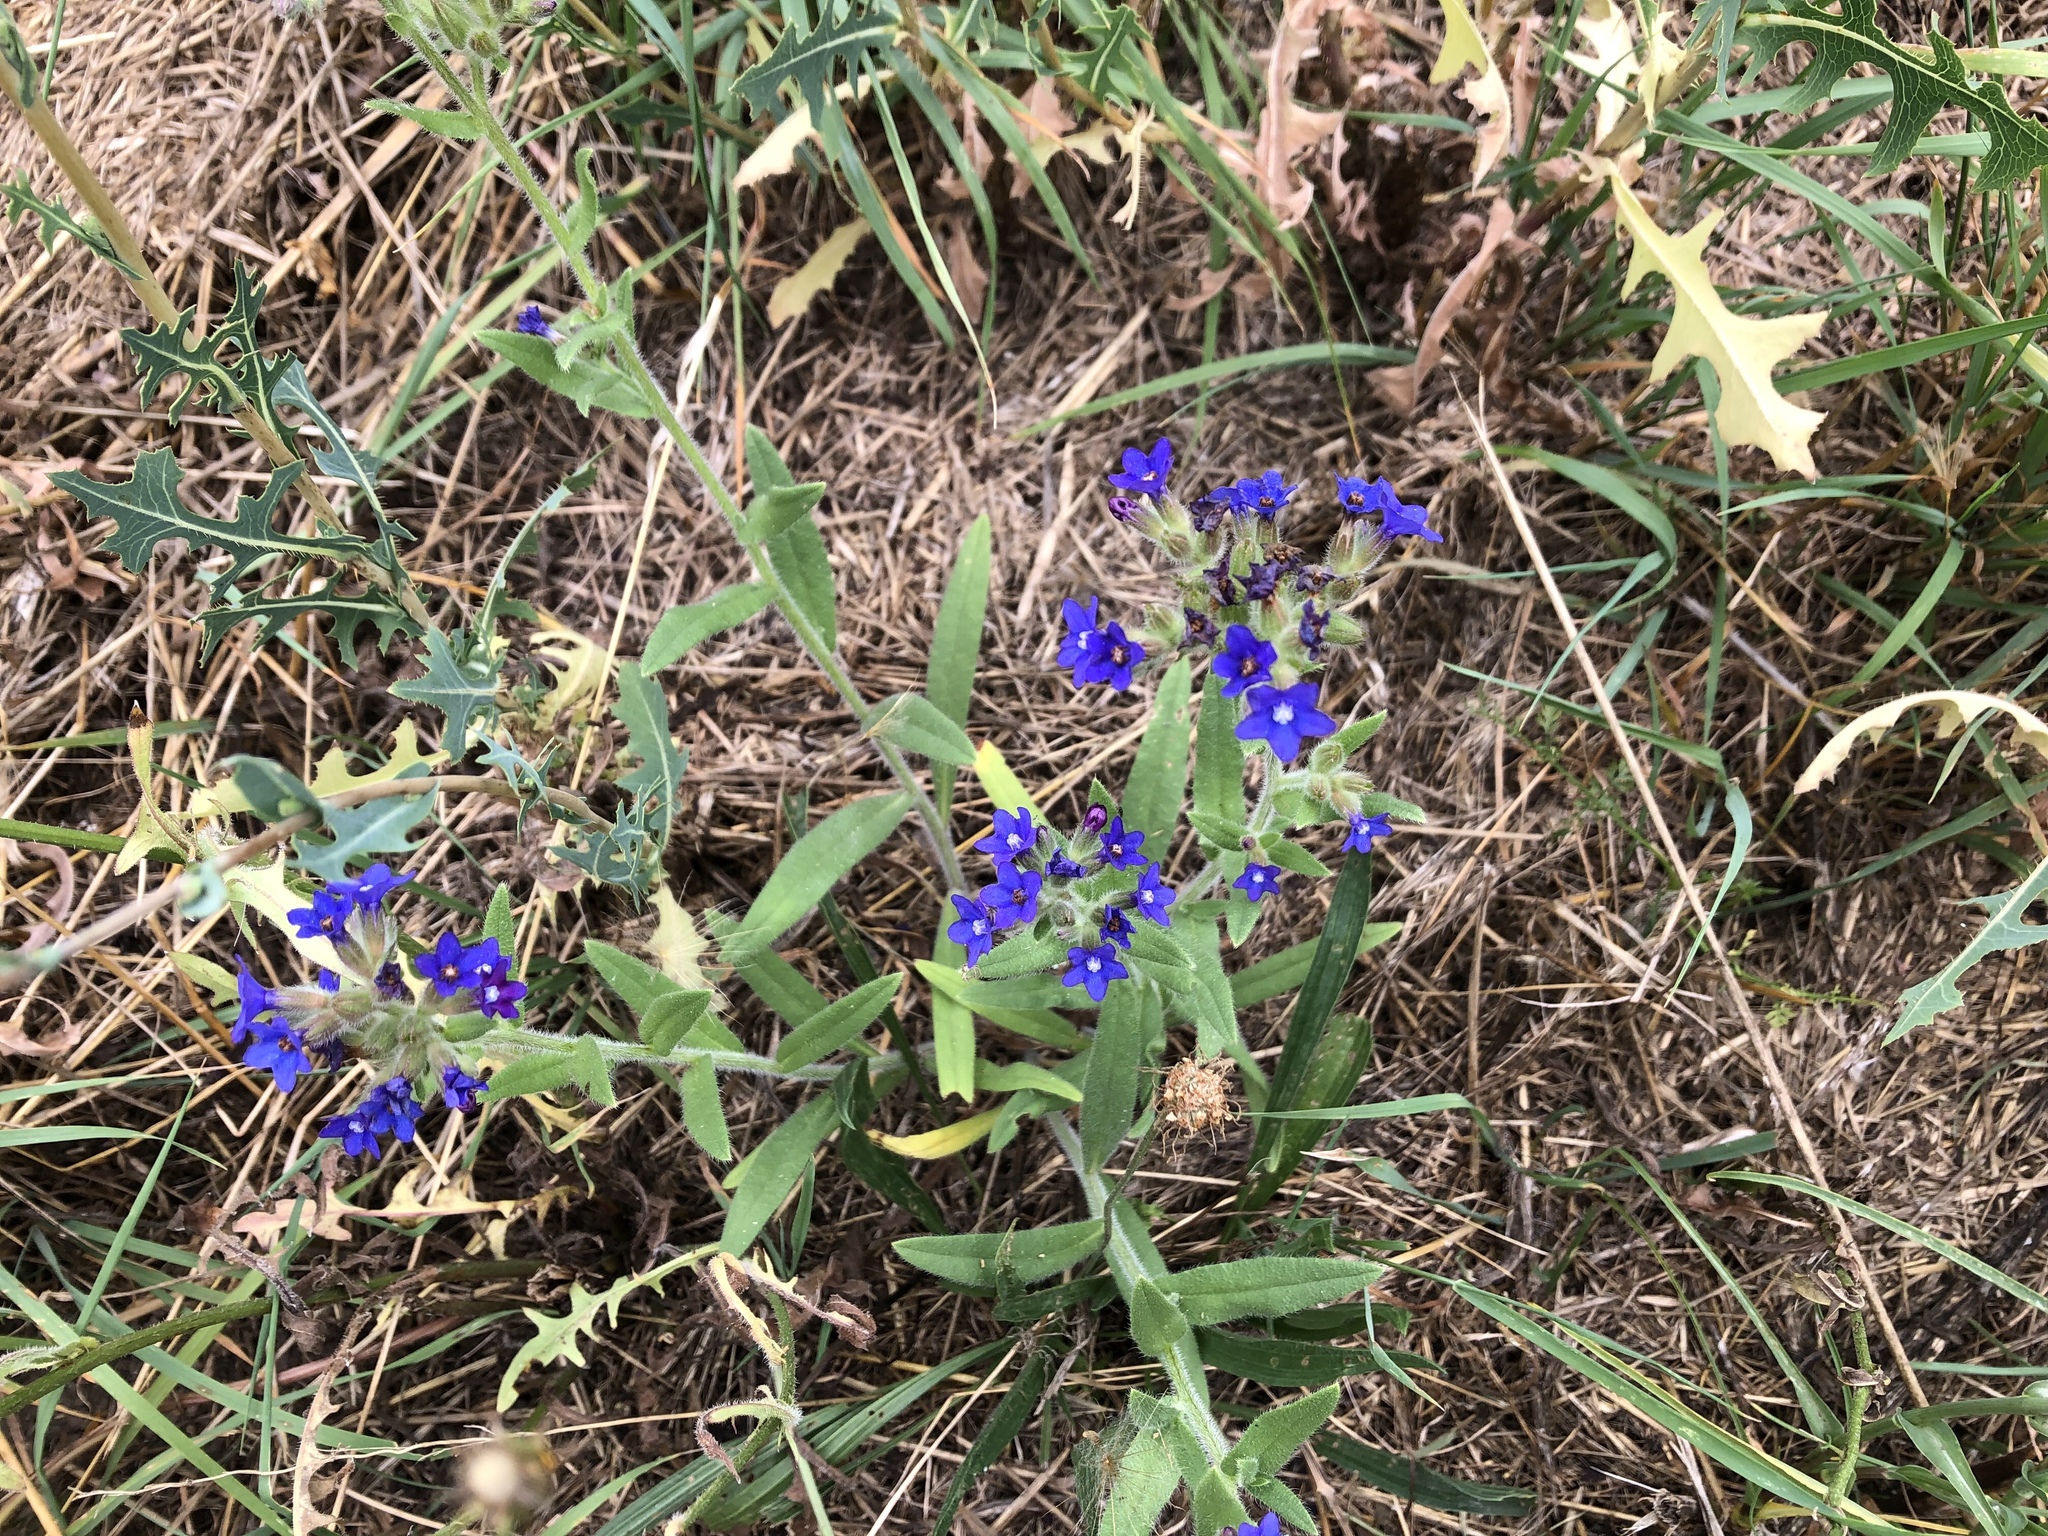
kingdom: Plantae
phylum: Tracheophyta
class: Magnoliopsida
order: Boraginales
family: Boraginaceae
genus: Anchusa
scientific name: Anchusa officinalis
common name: Alkanet
